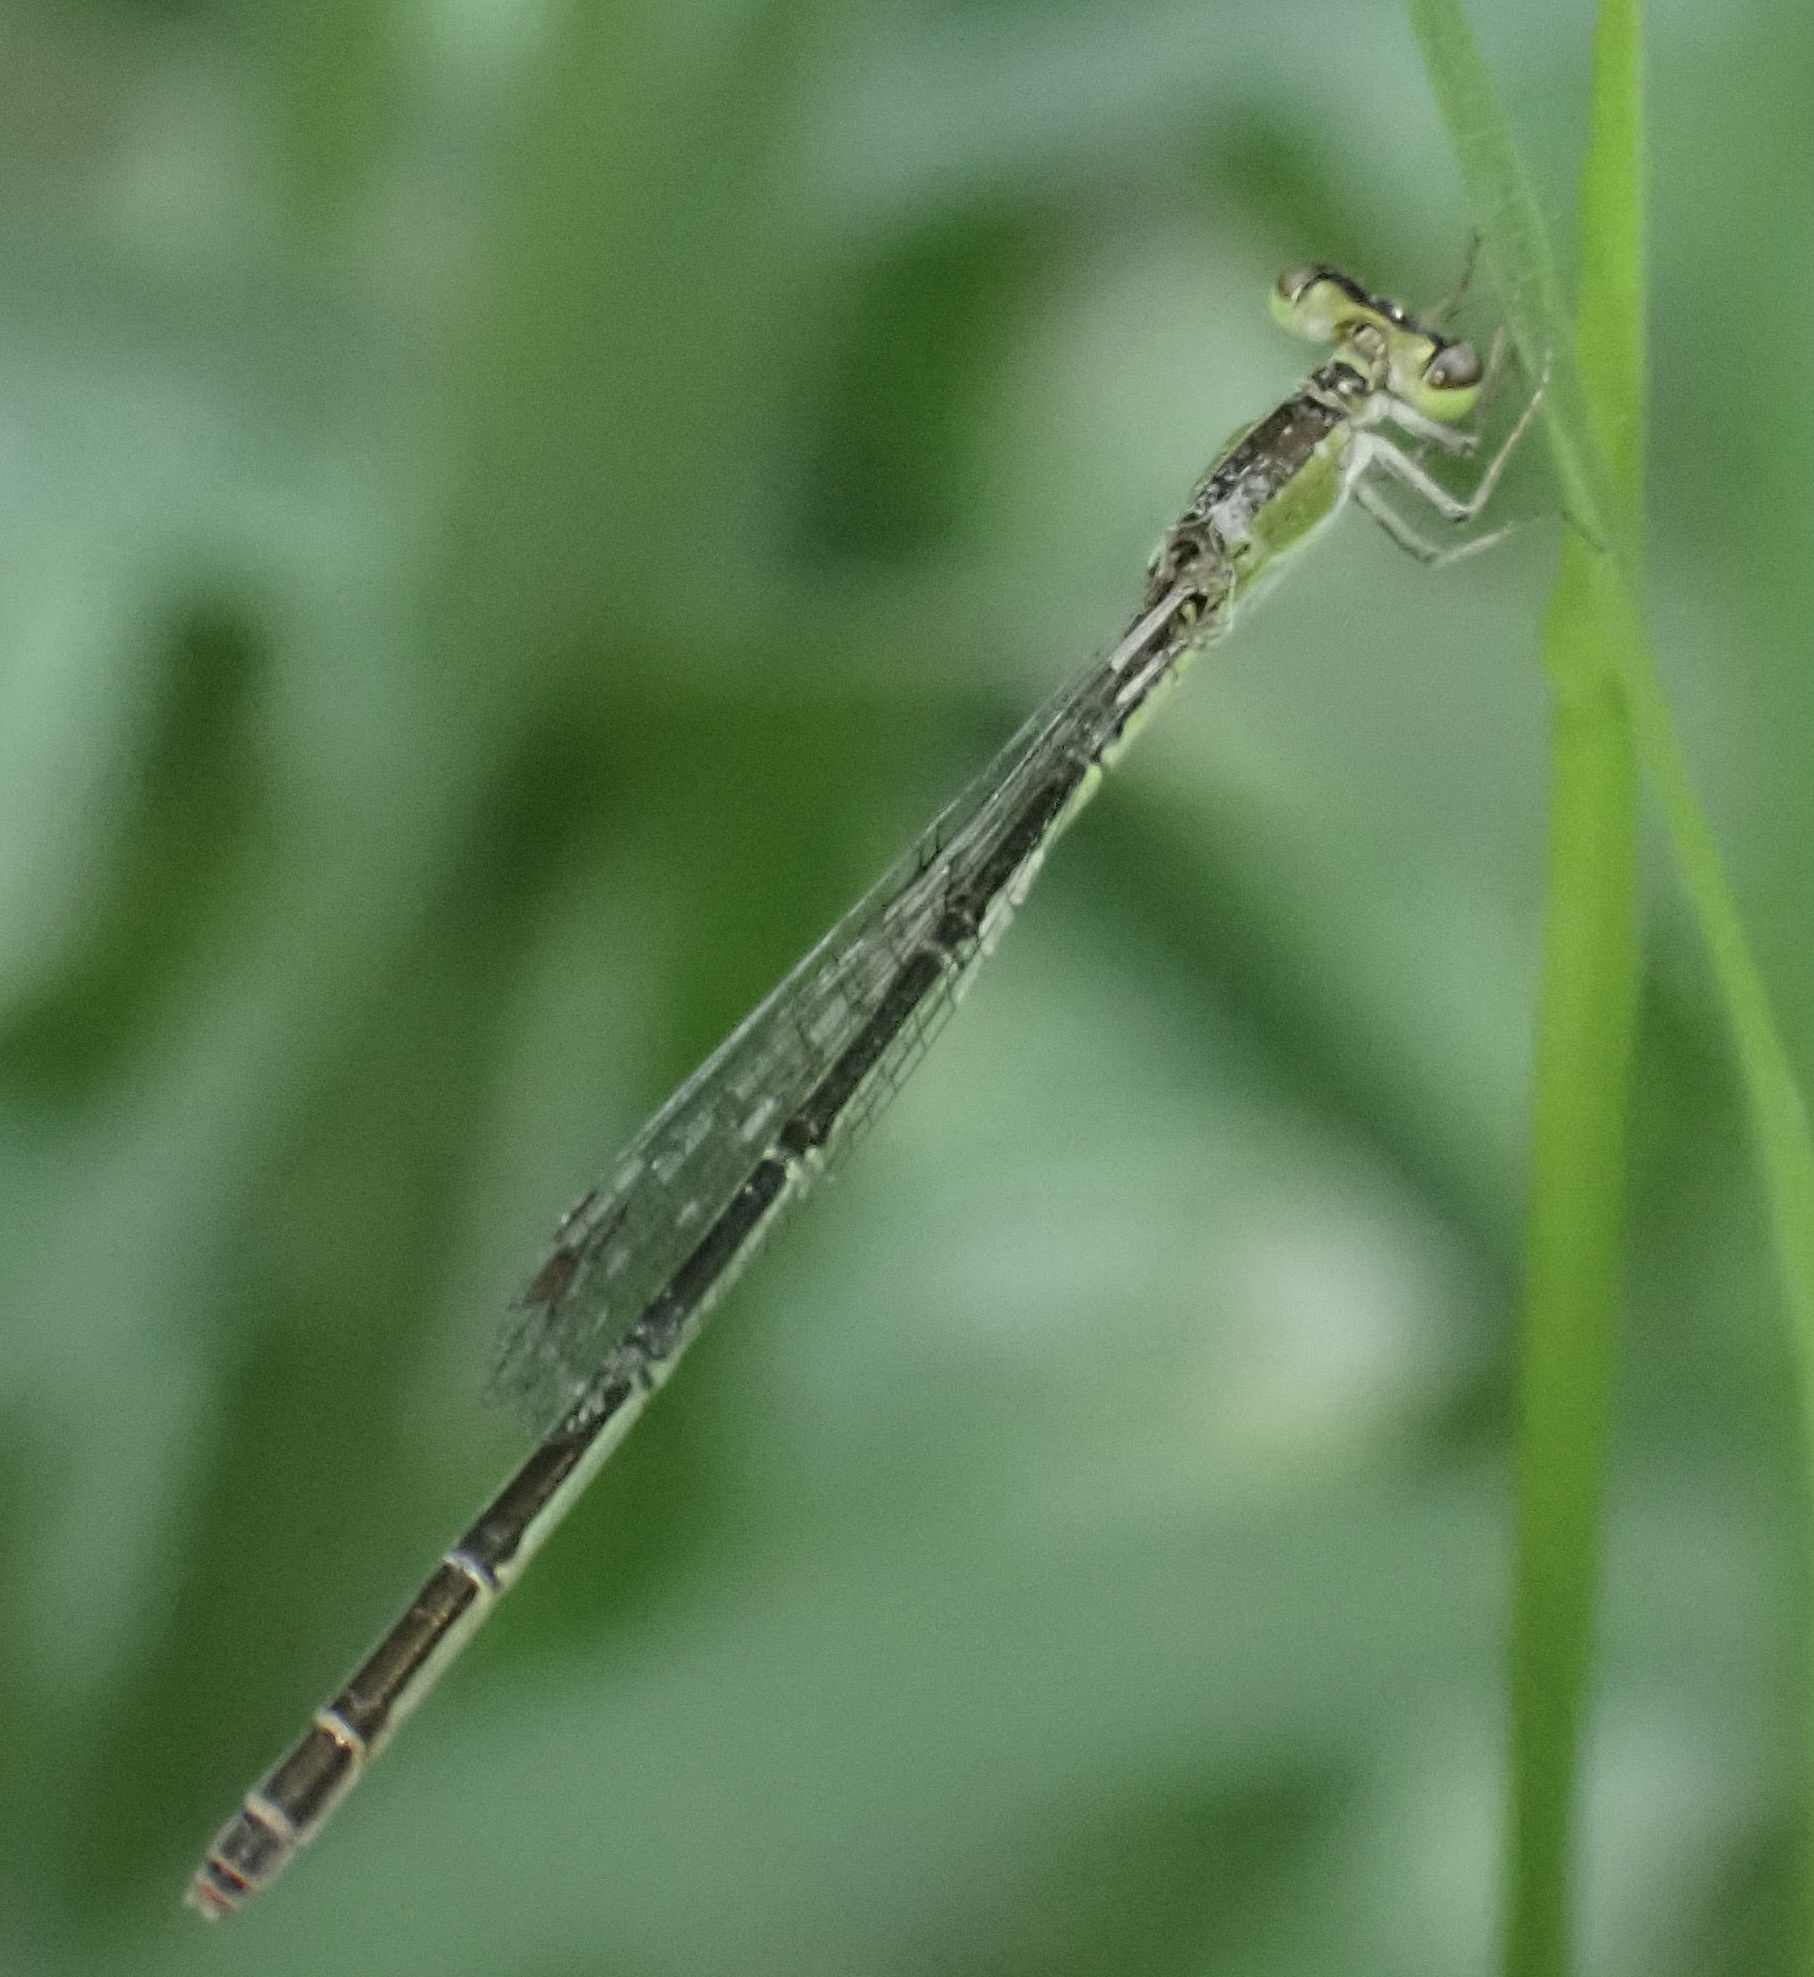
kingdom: Animalia
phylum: Arthropoda
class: Insecta
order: Odonata
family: Coenagrionidae
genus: Agriocnemis
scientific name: Agriocnemis pygmaea
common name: Pygmy wisp
